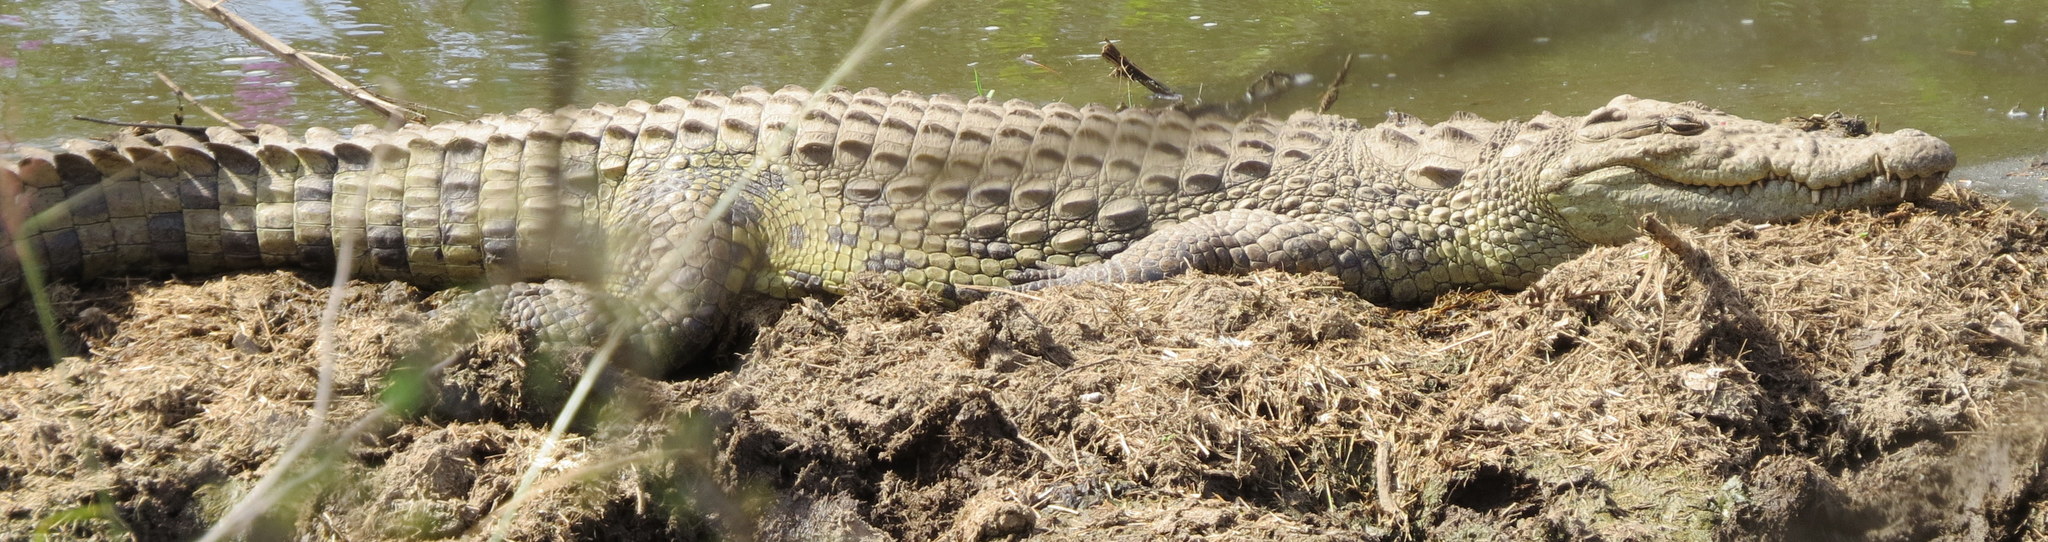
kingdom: Animalia
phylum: Chordata
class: Crocodylia
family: Crocodylidae
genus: Crocodylus
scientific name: Crocodylus niloticus
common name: Nile crocodile
